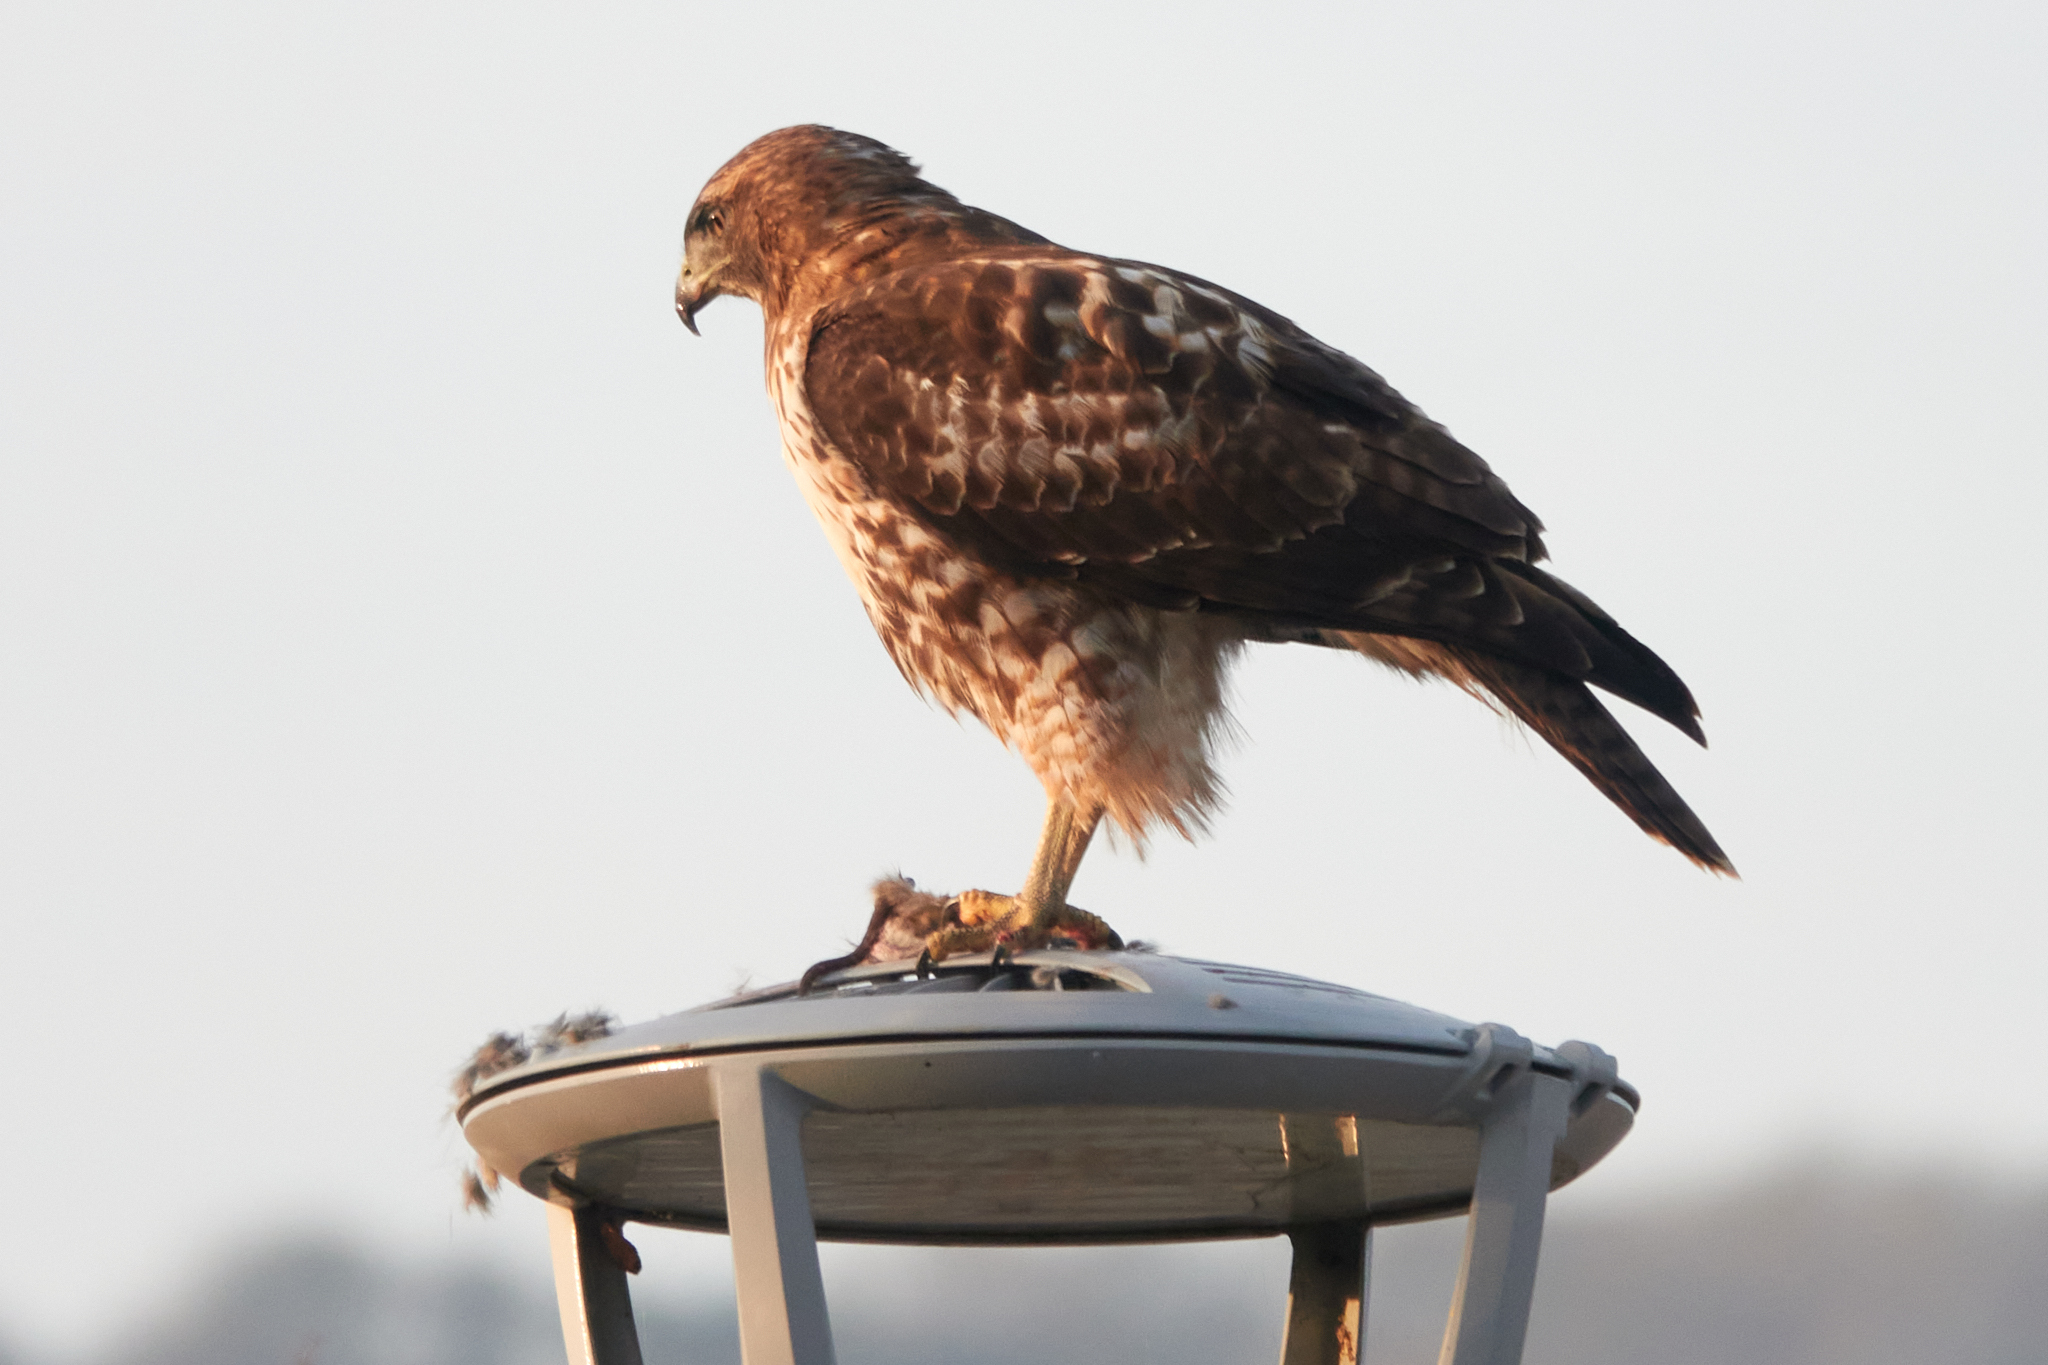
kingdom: Animalia
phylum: Chordata
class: Aves
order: Accipitriformes
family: Accipitridae
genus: Buteo
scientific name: Buteo jamaicensis
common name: Red-tailed hawk
